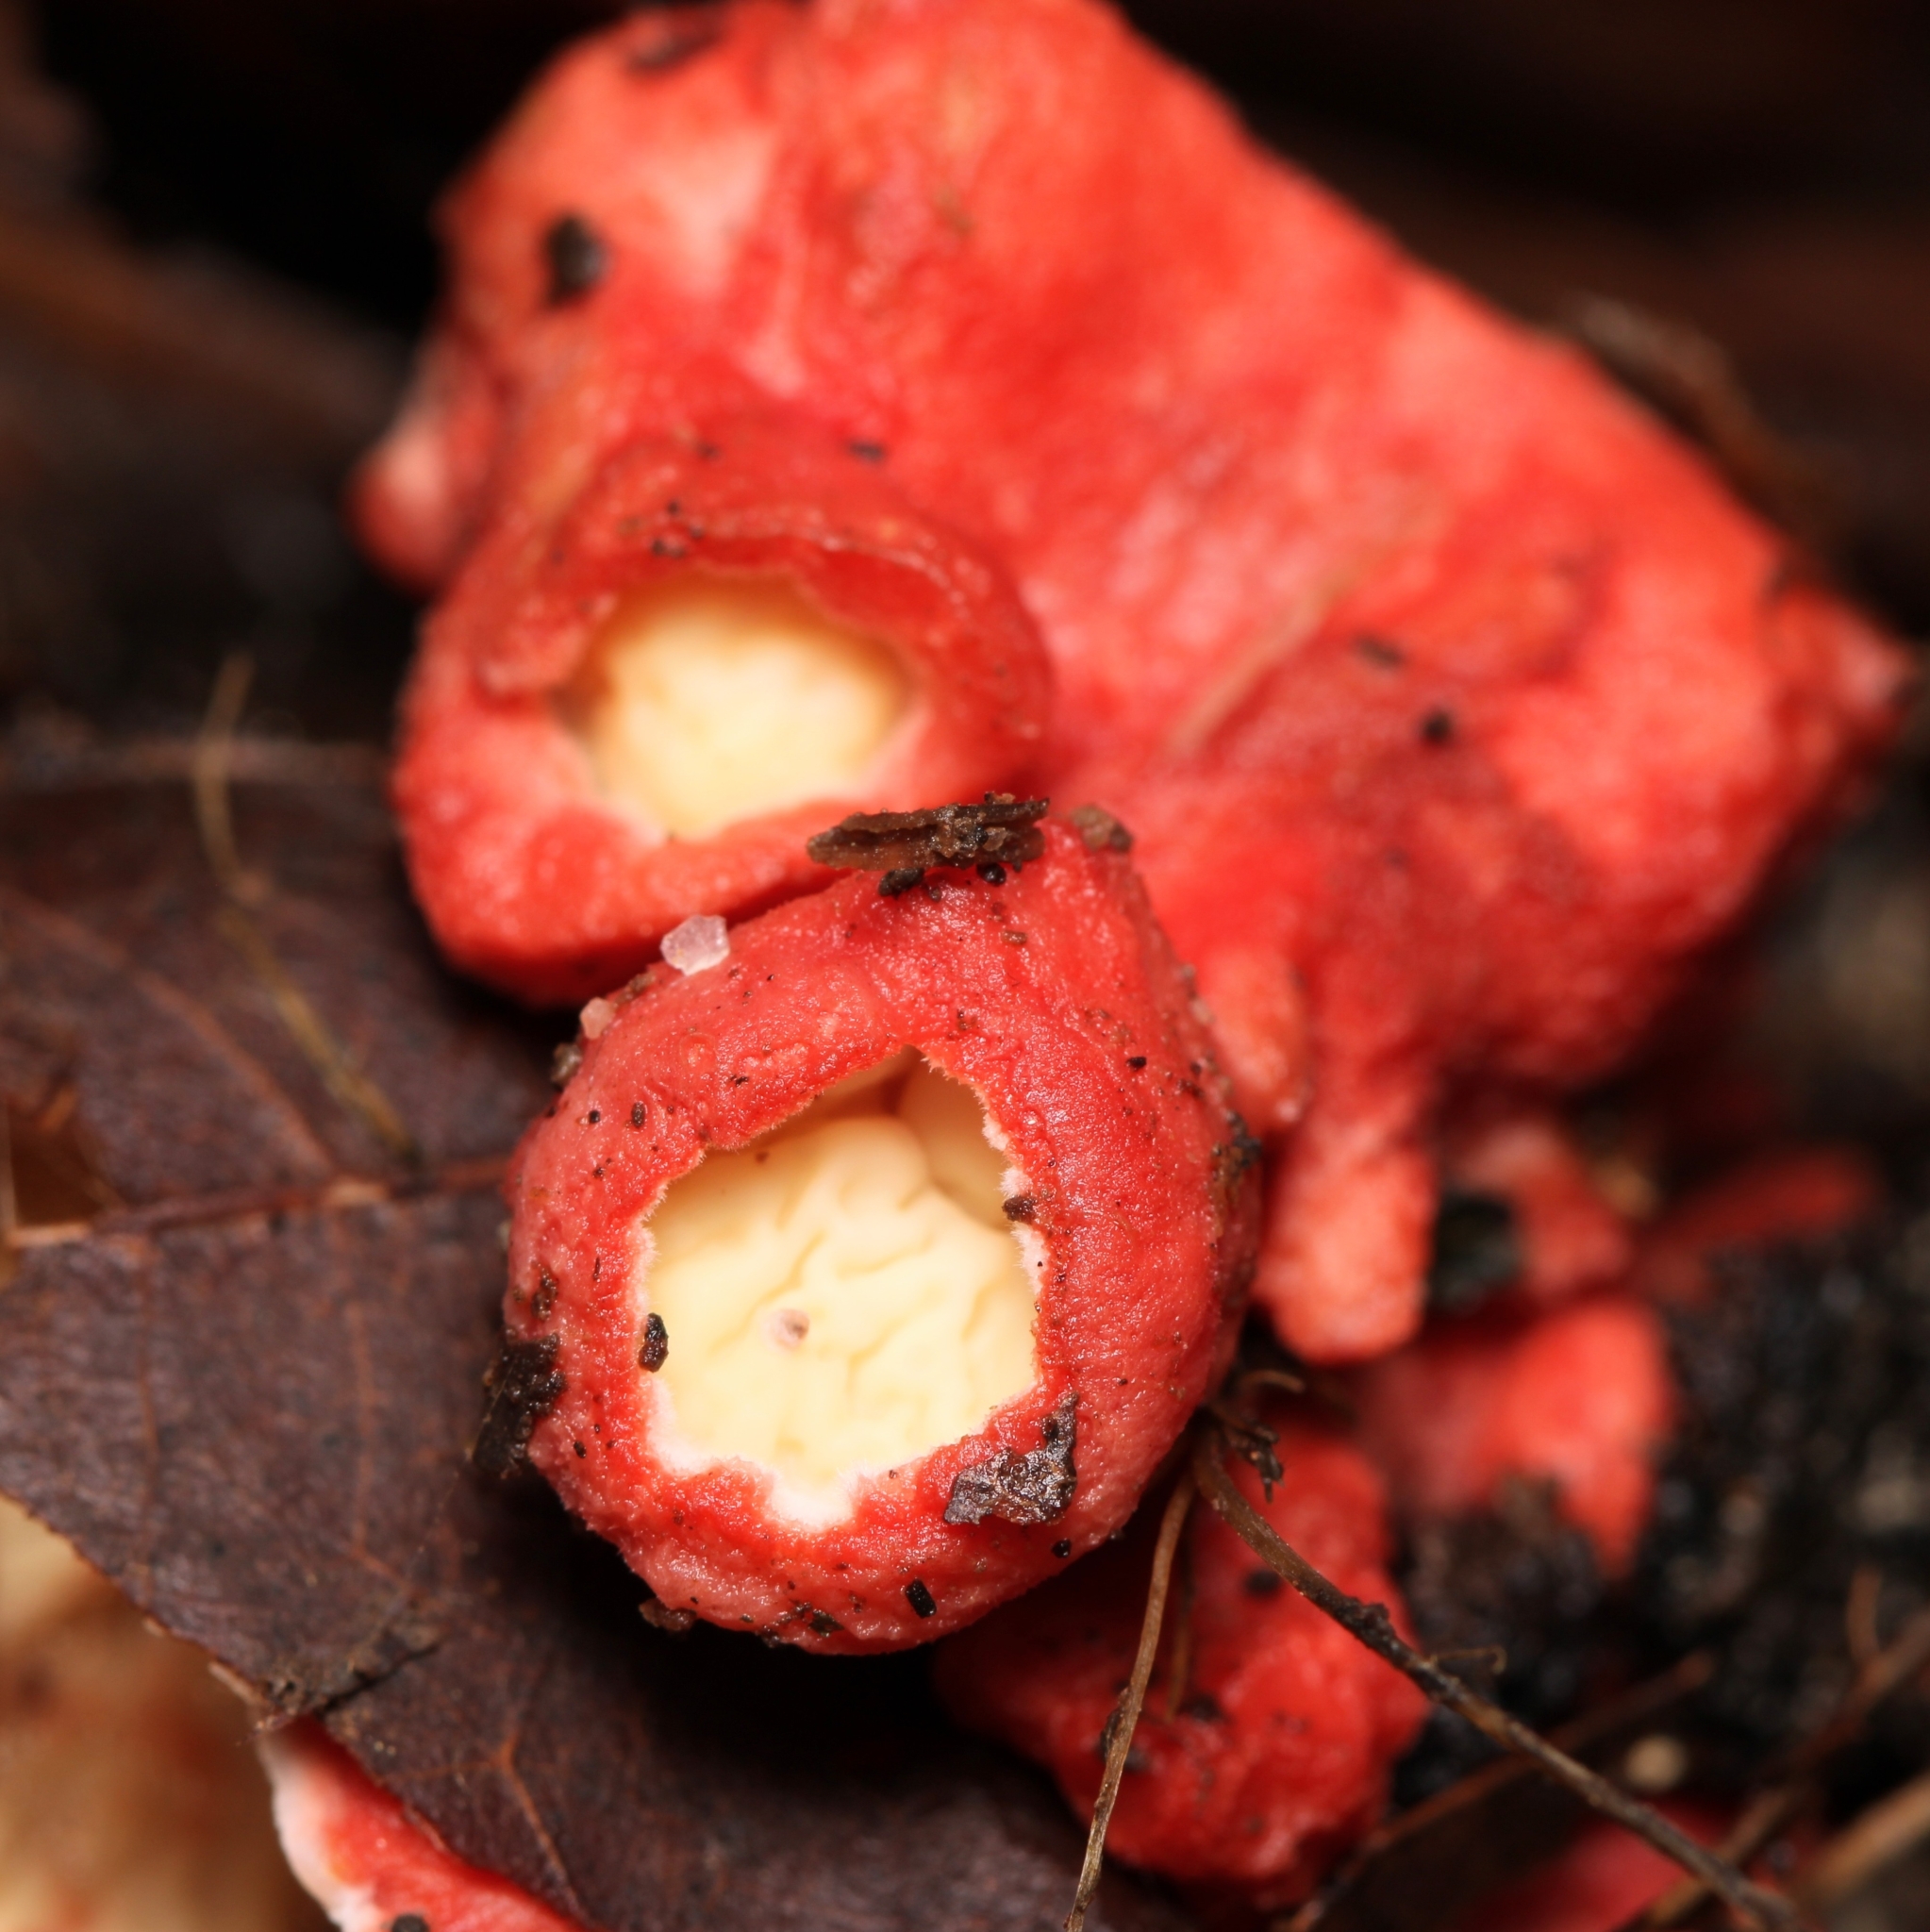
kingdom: Fungi
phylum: Basidiomycota
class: Agaricomycetes
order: Polyporales
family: Irpicaceae
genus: Byssomerulius
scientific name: Byssomerulius incarnatus
